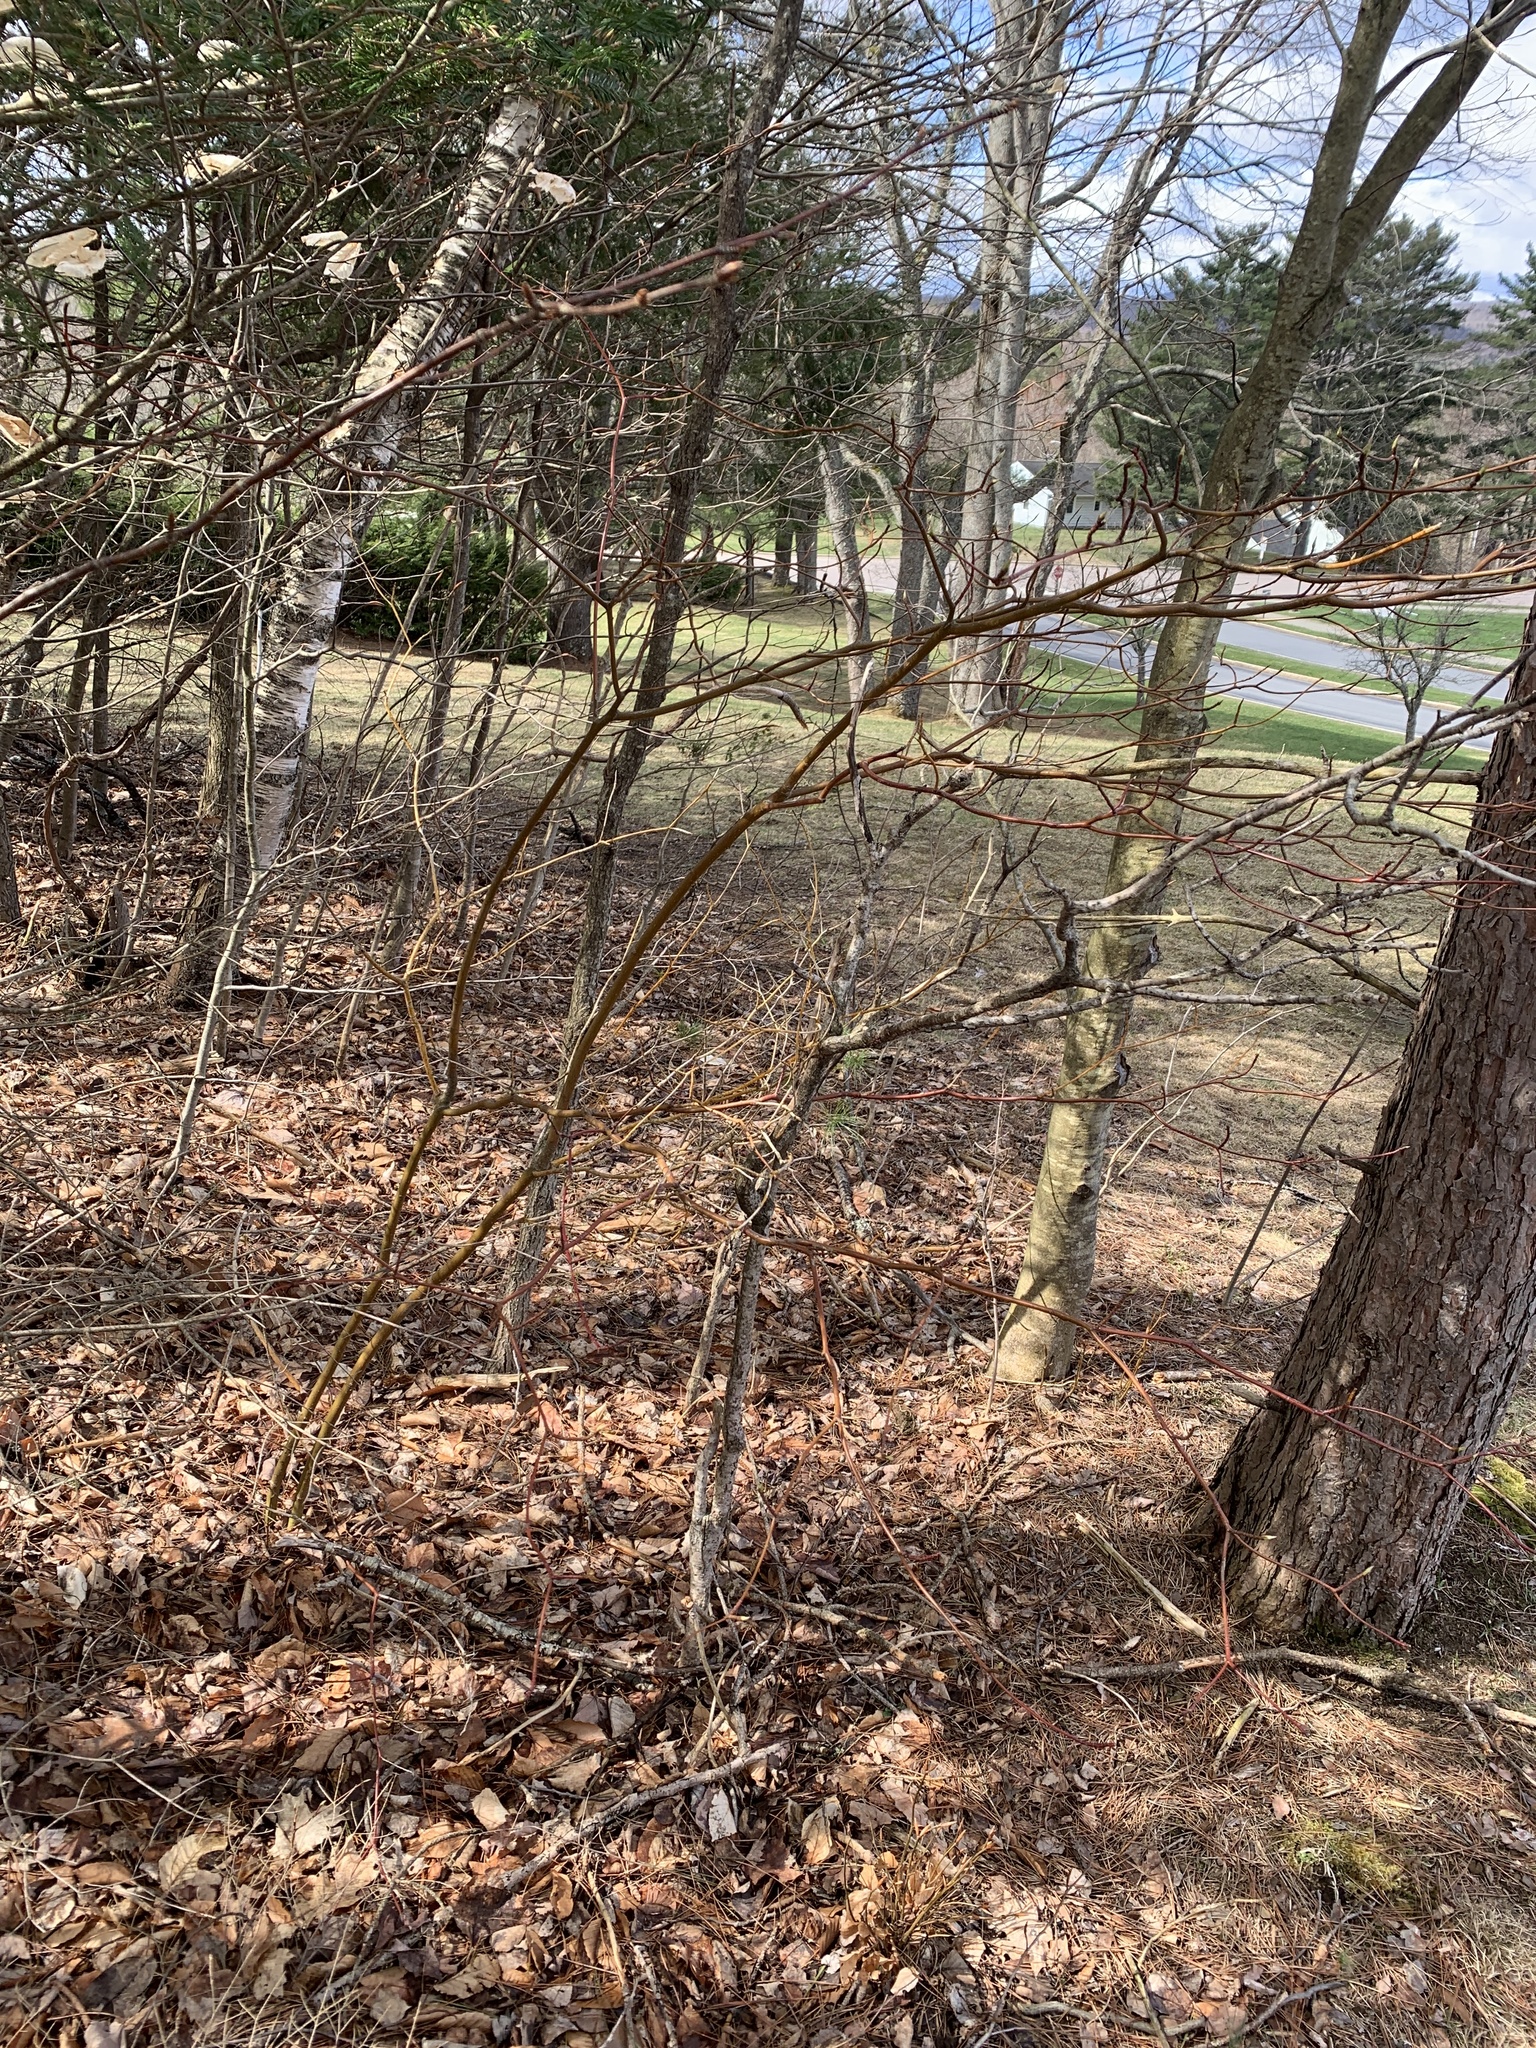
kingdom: Plantae
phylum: Tracheophyta
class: Magnoliopsida
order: Cornales
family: Cornaceae
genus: Cornus
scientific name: Cornus alternifolia
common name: Pagoda dogwood
